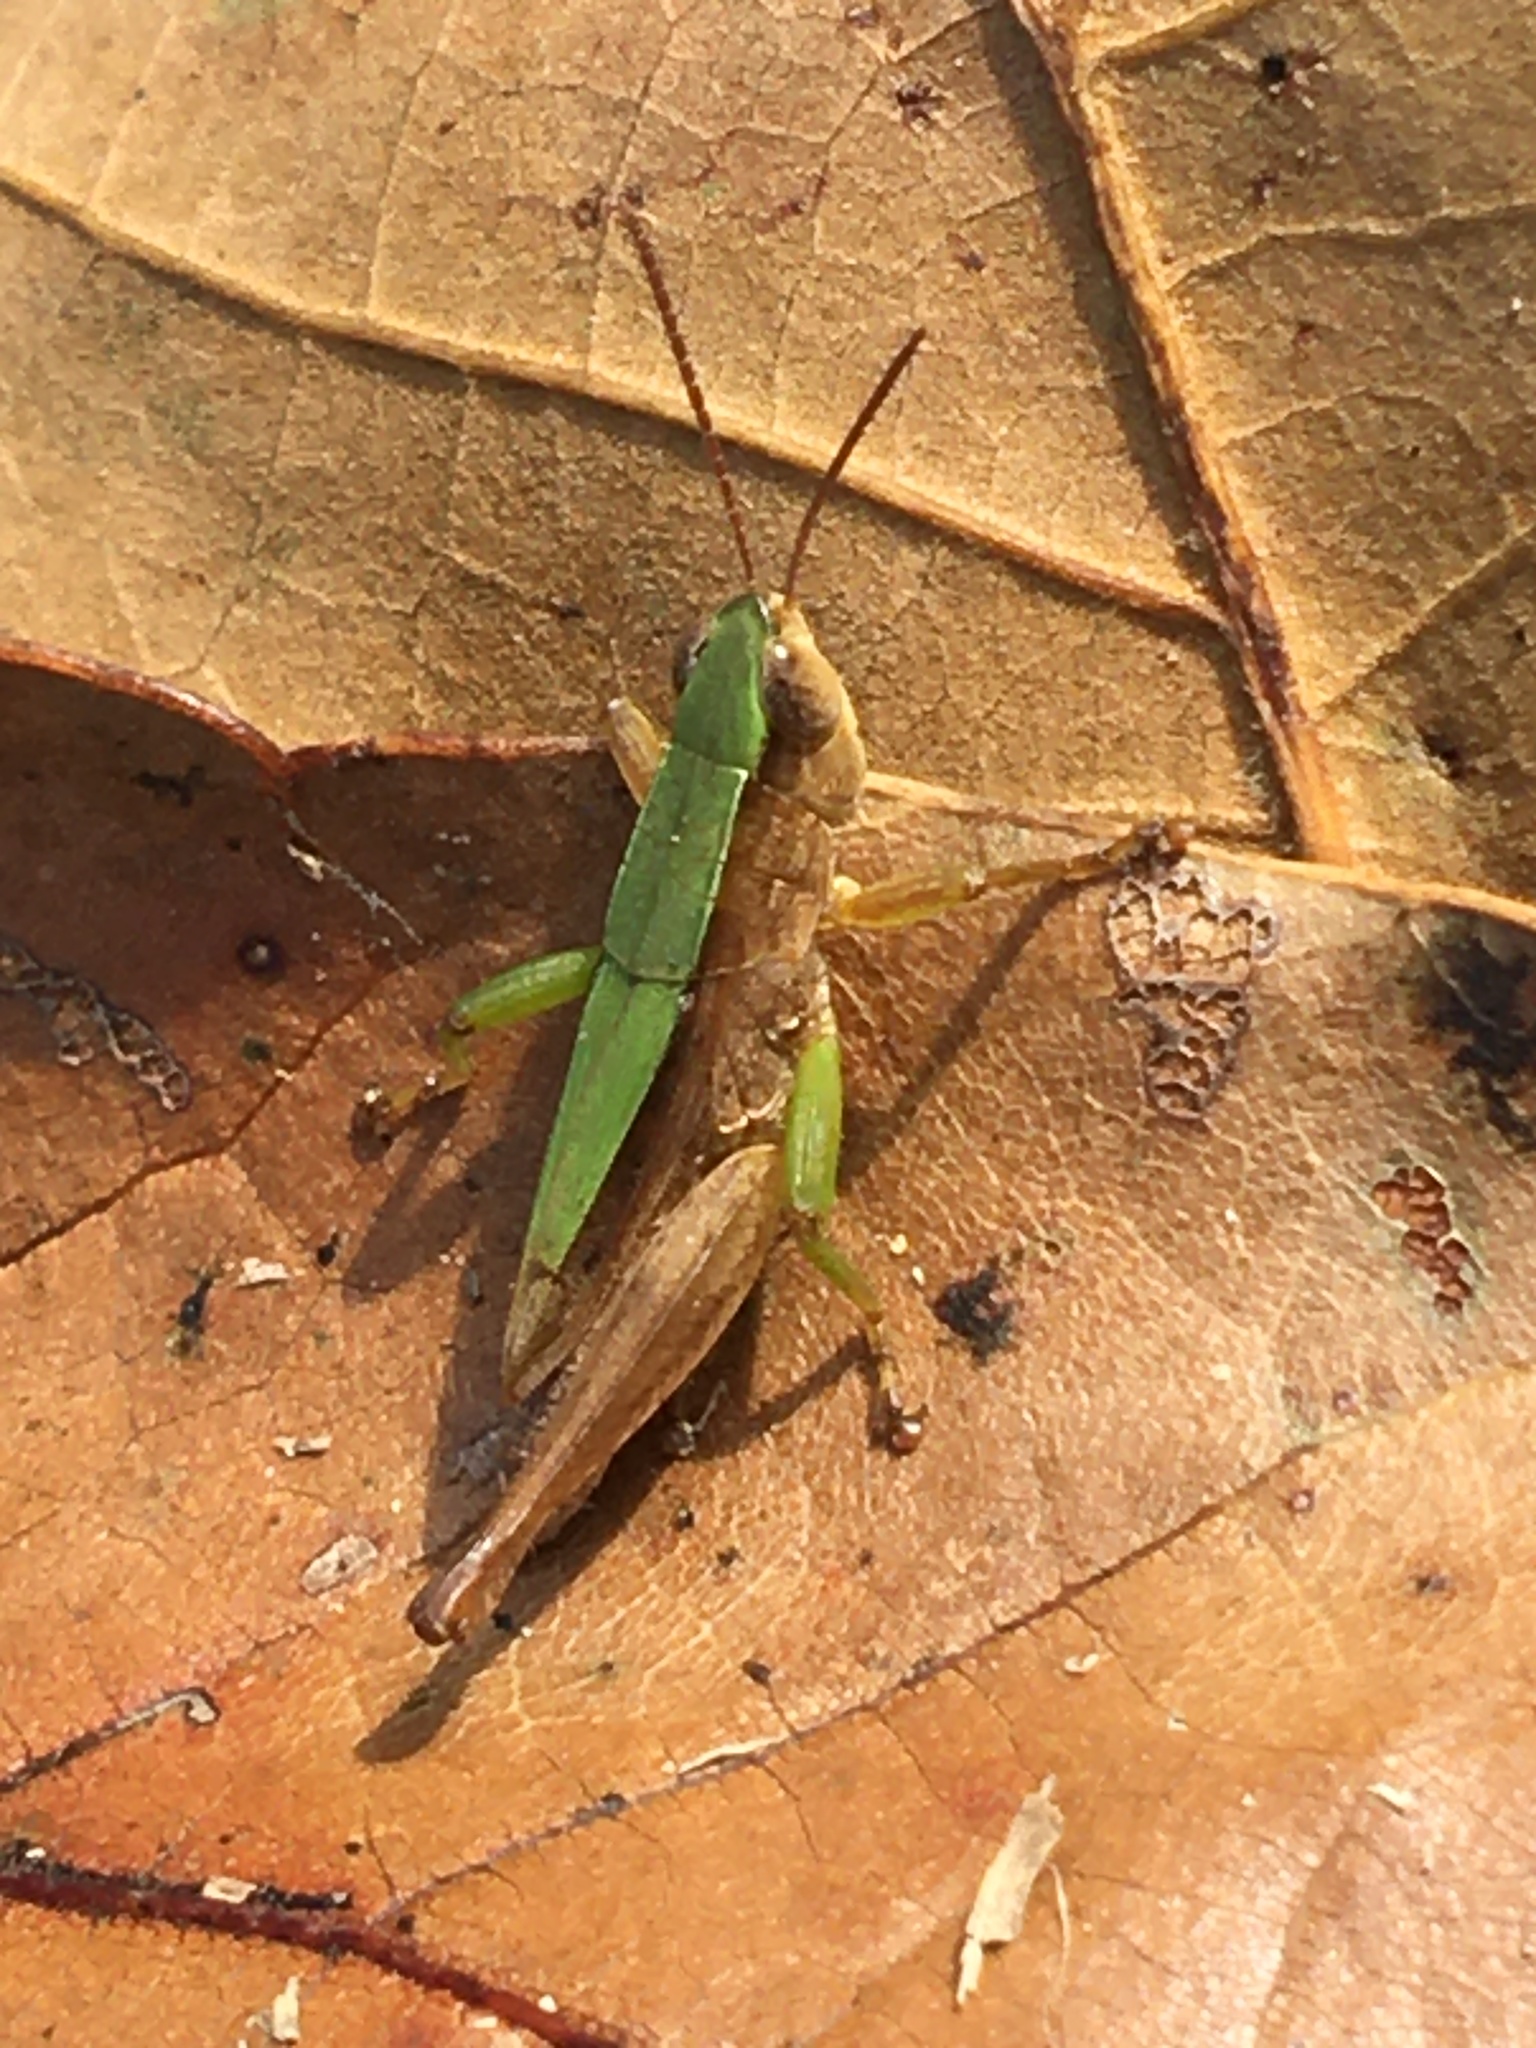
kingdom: Animalia
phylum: Arthropoda
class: Insecta
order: Orthoptera
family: Acrididae
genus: Dichromorpha
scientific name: Dichromorpha viridis
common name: Short-winged green grasshopper
